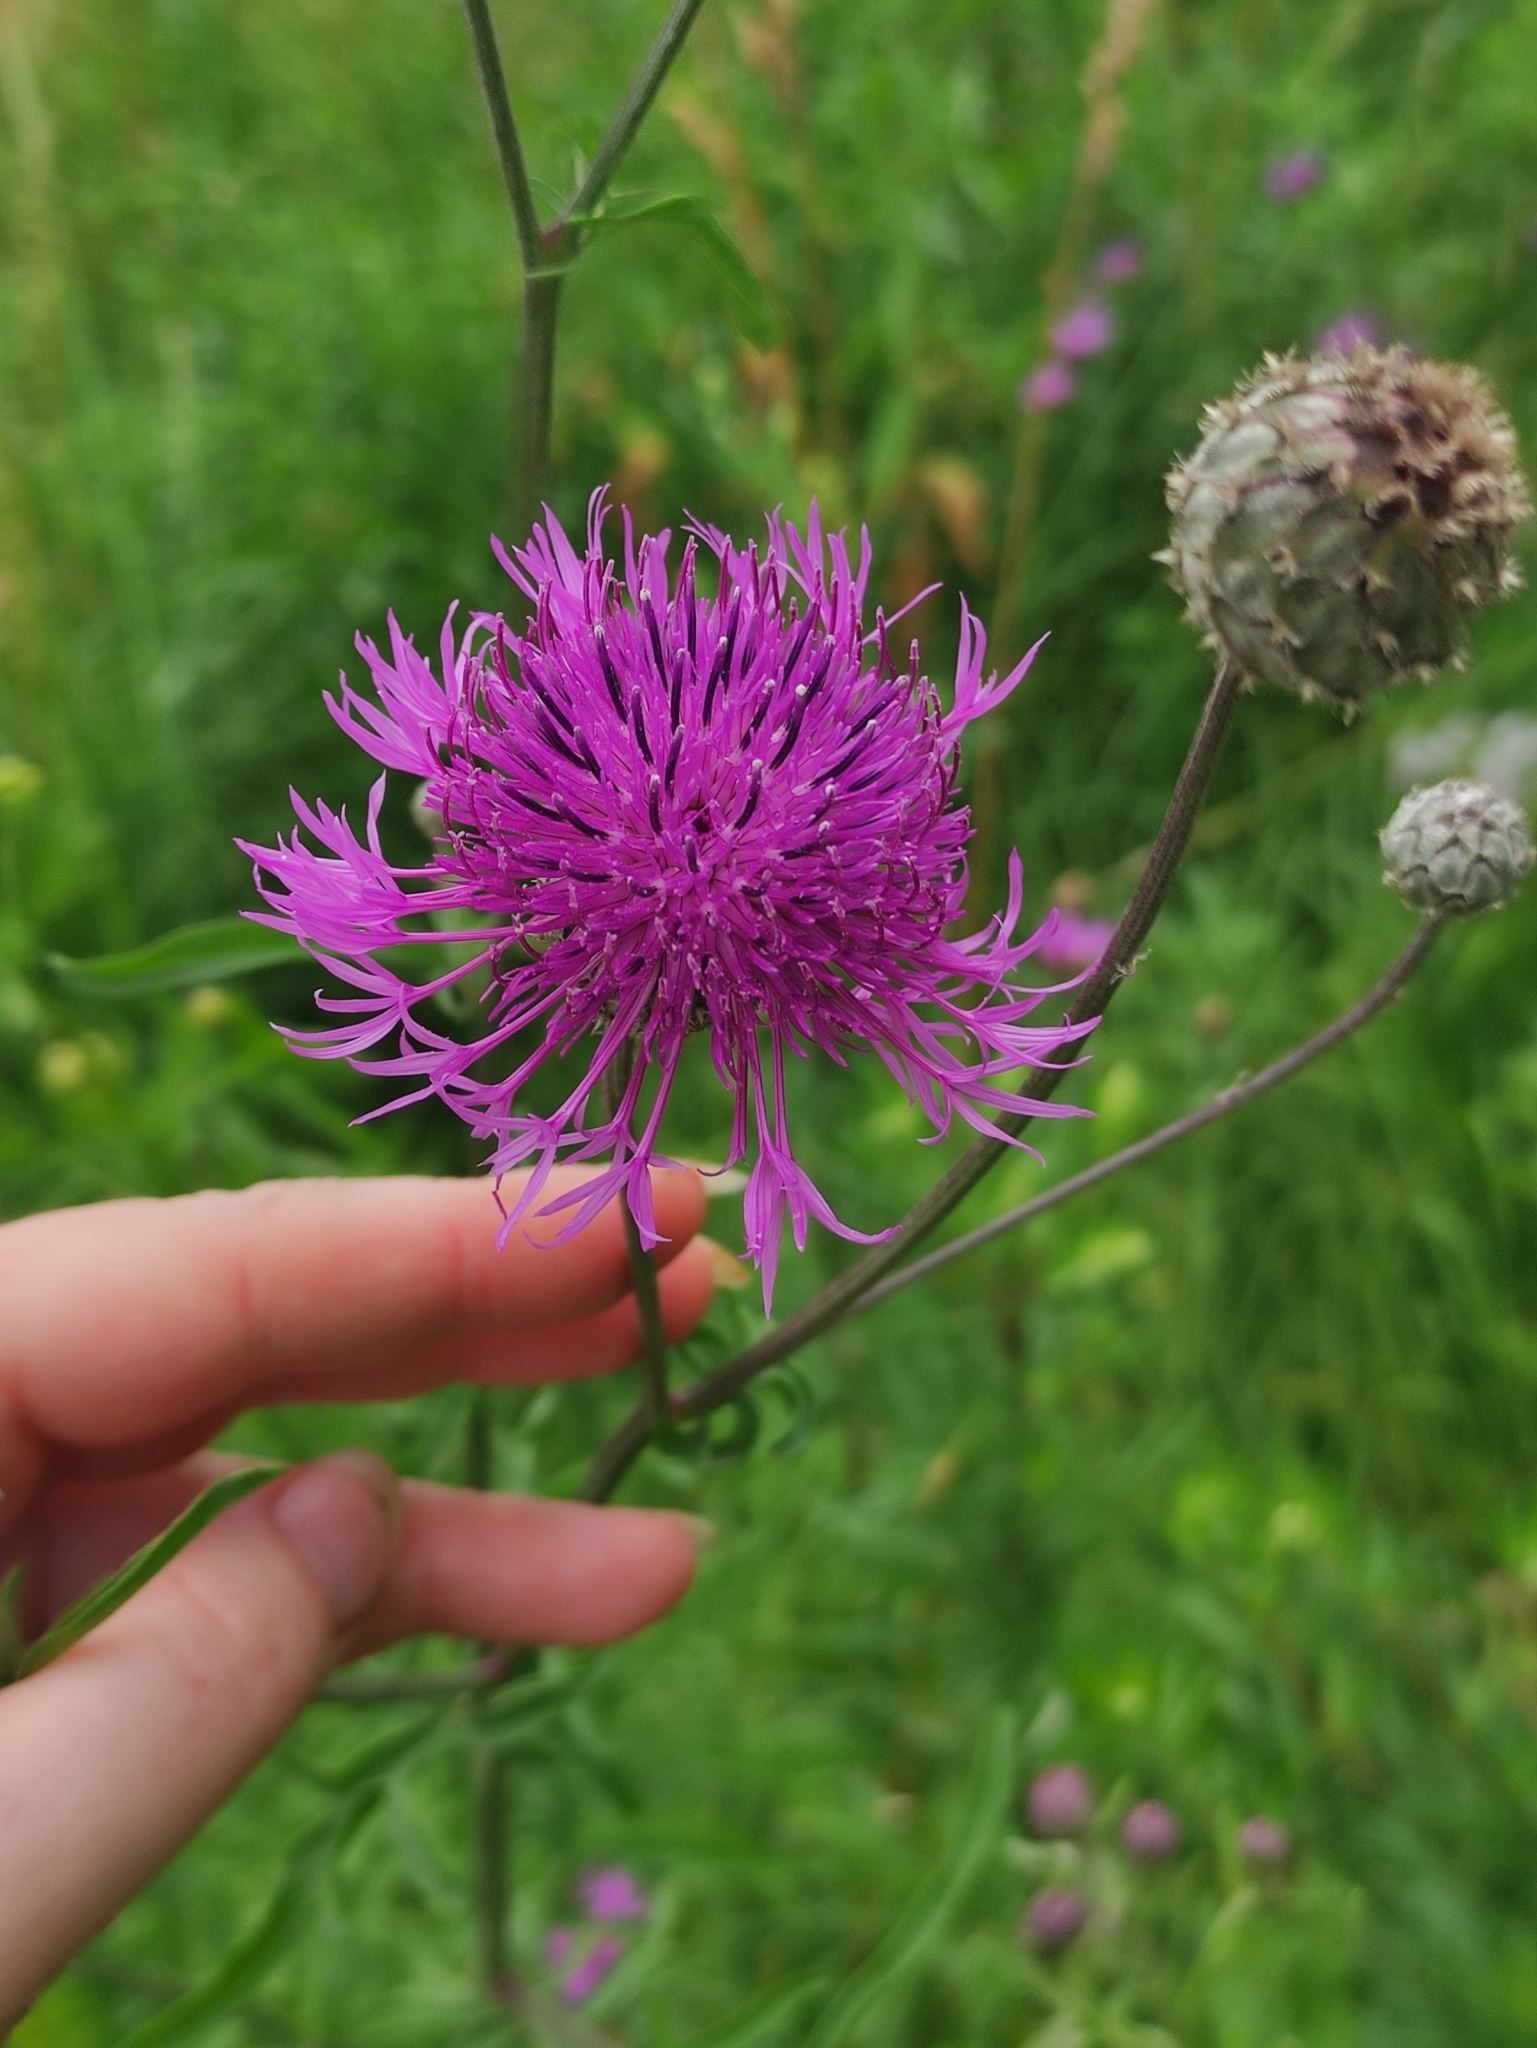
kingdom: Plantae
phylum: Tracheophyta
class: Magnoliopsida
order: Asterales
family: Asteraceae
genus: Centaurea
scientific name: Centaurea scabiosa
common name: Greater knapweed
